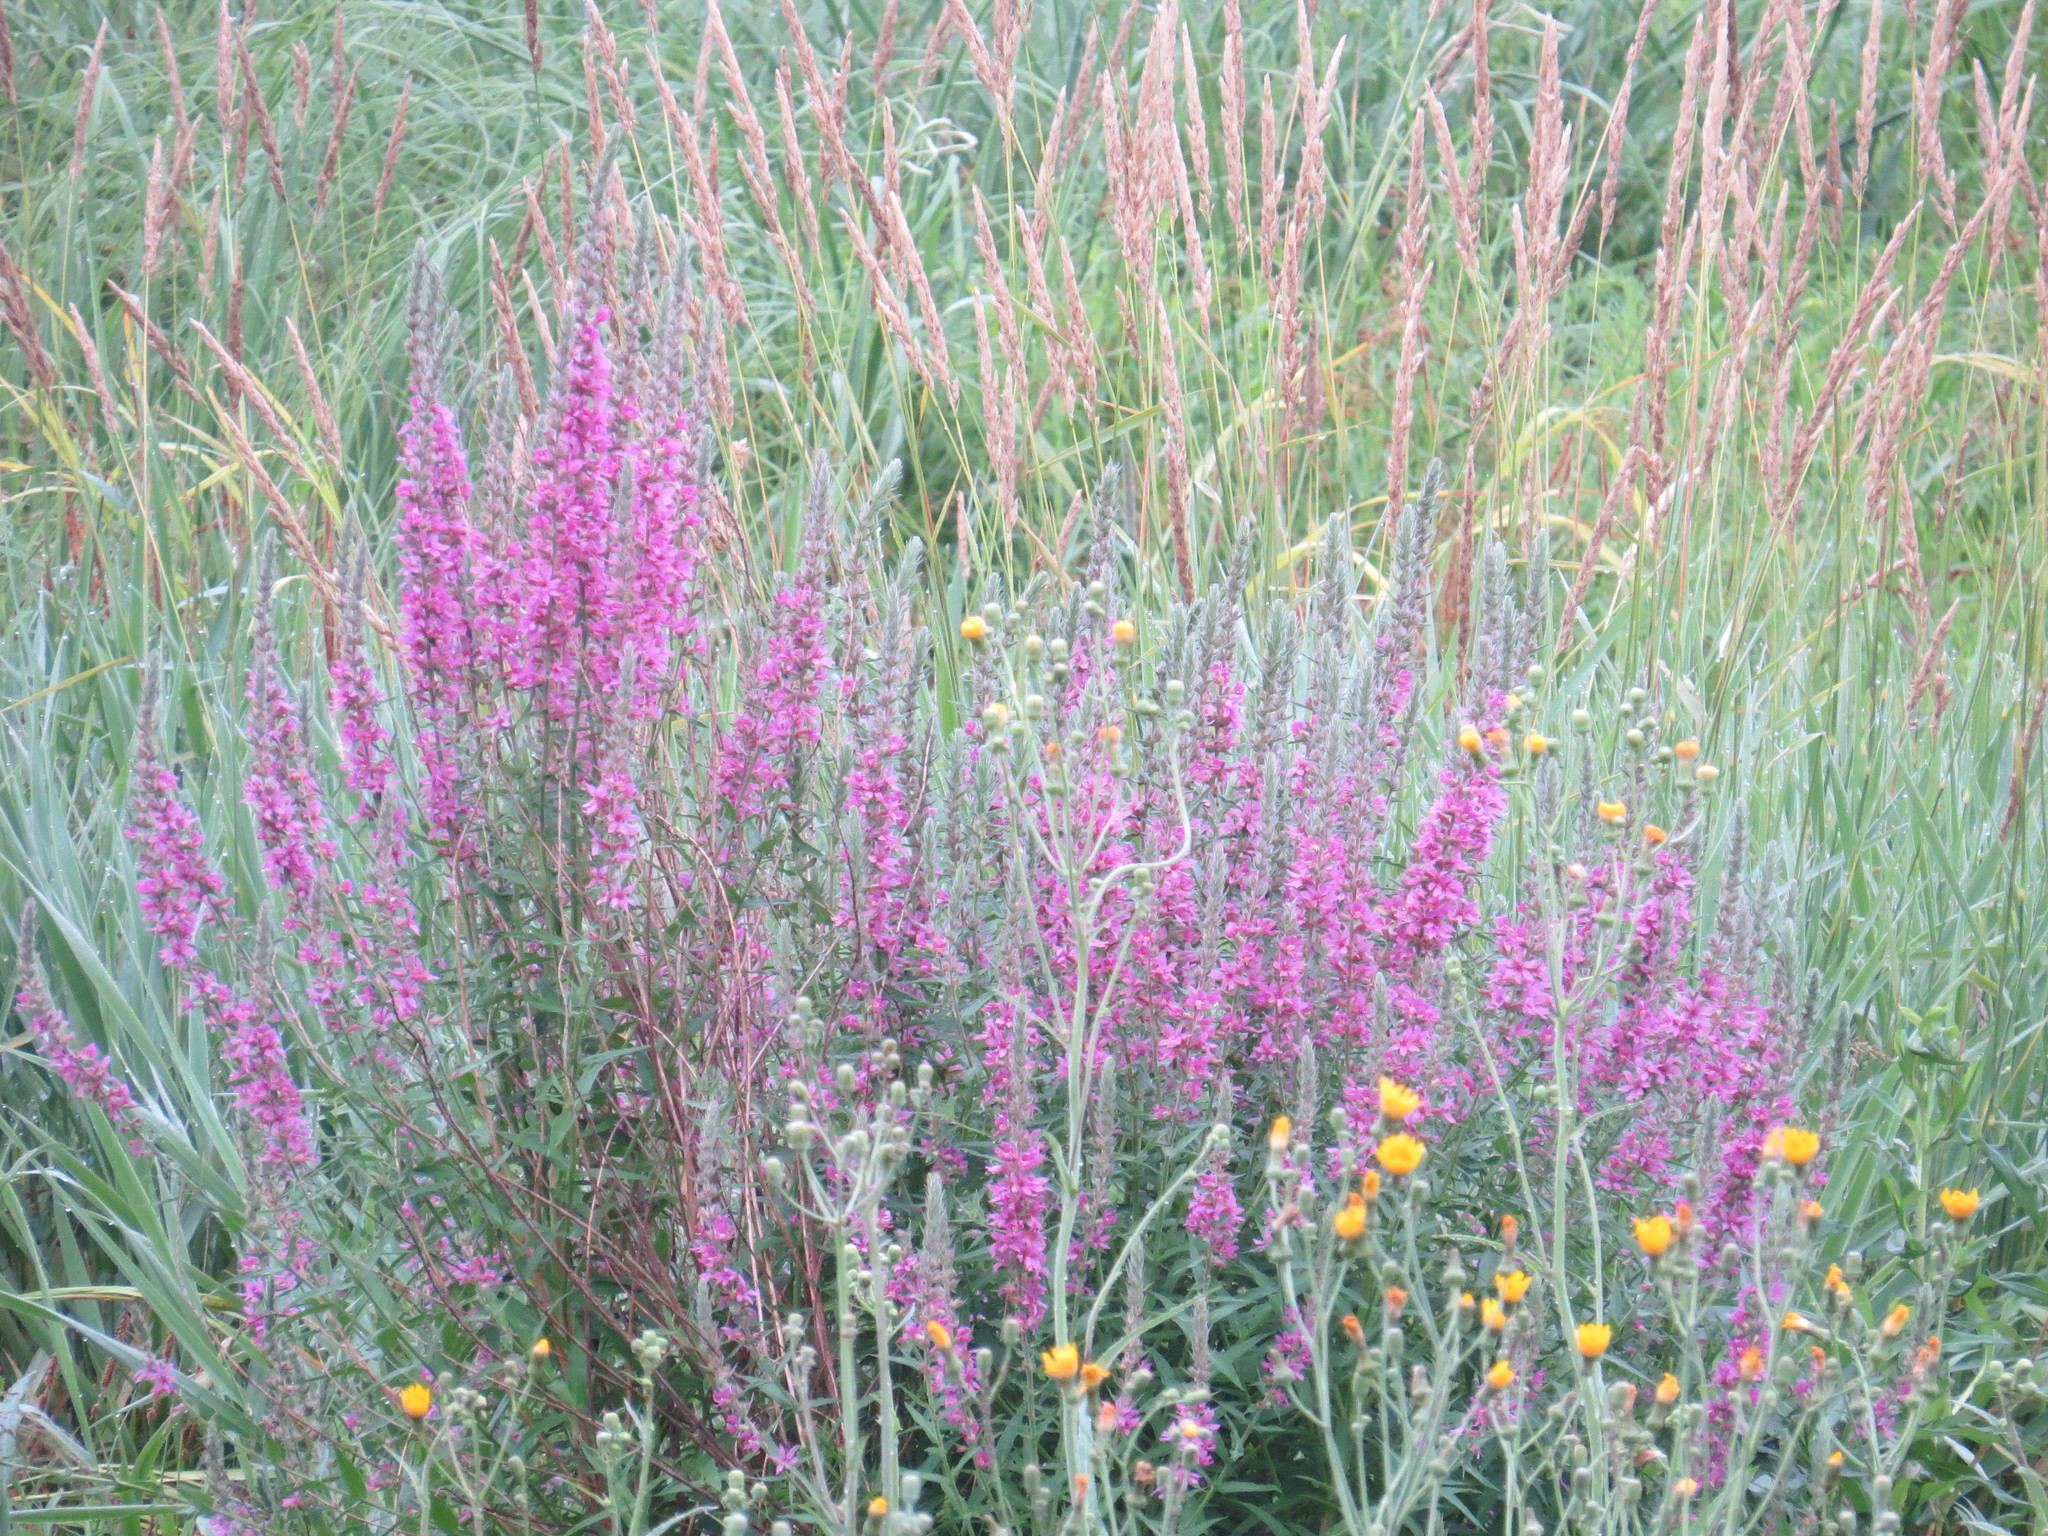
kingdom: Plantae
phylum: Tracheophyta
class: Magnoliopsida
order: Myrtales
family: Lythraceae
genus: Lythrum
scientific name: Lythrum salicaria
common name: Purple loosestrife
